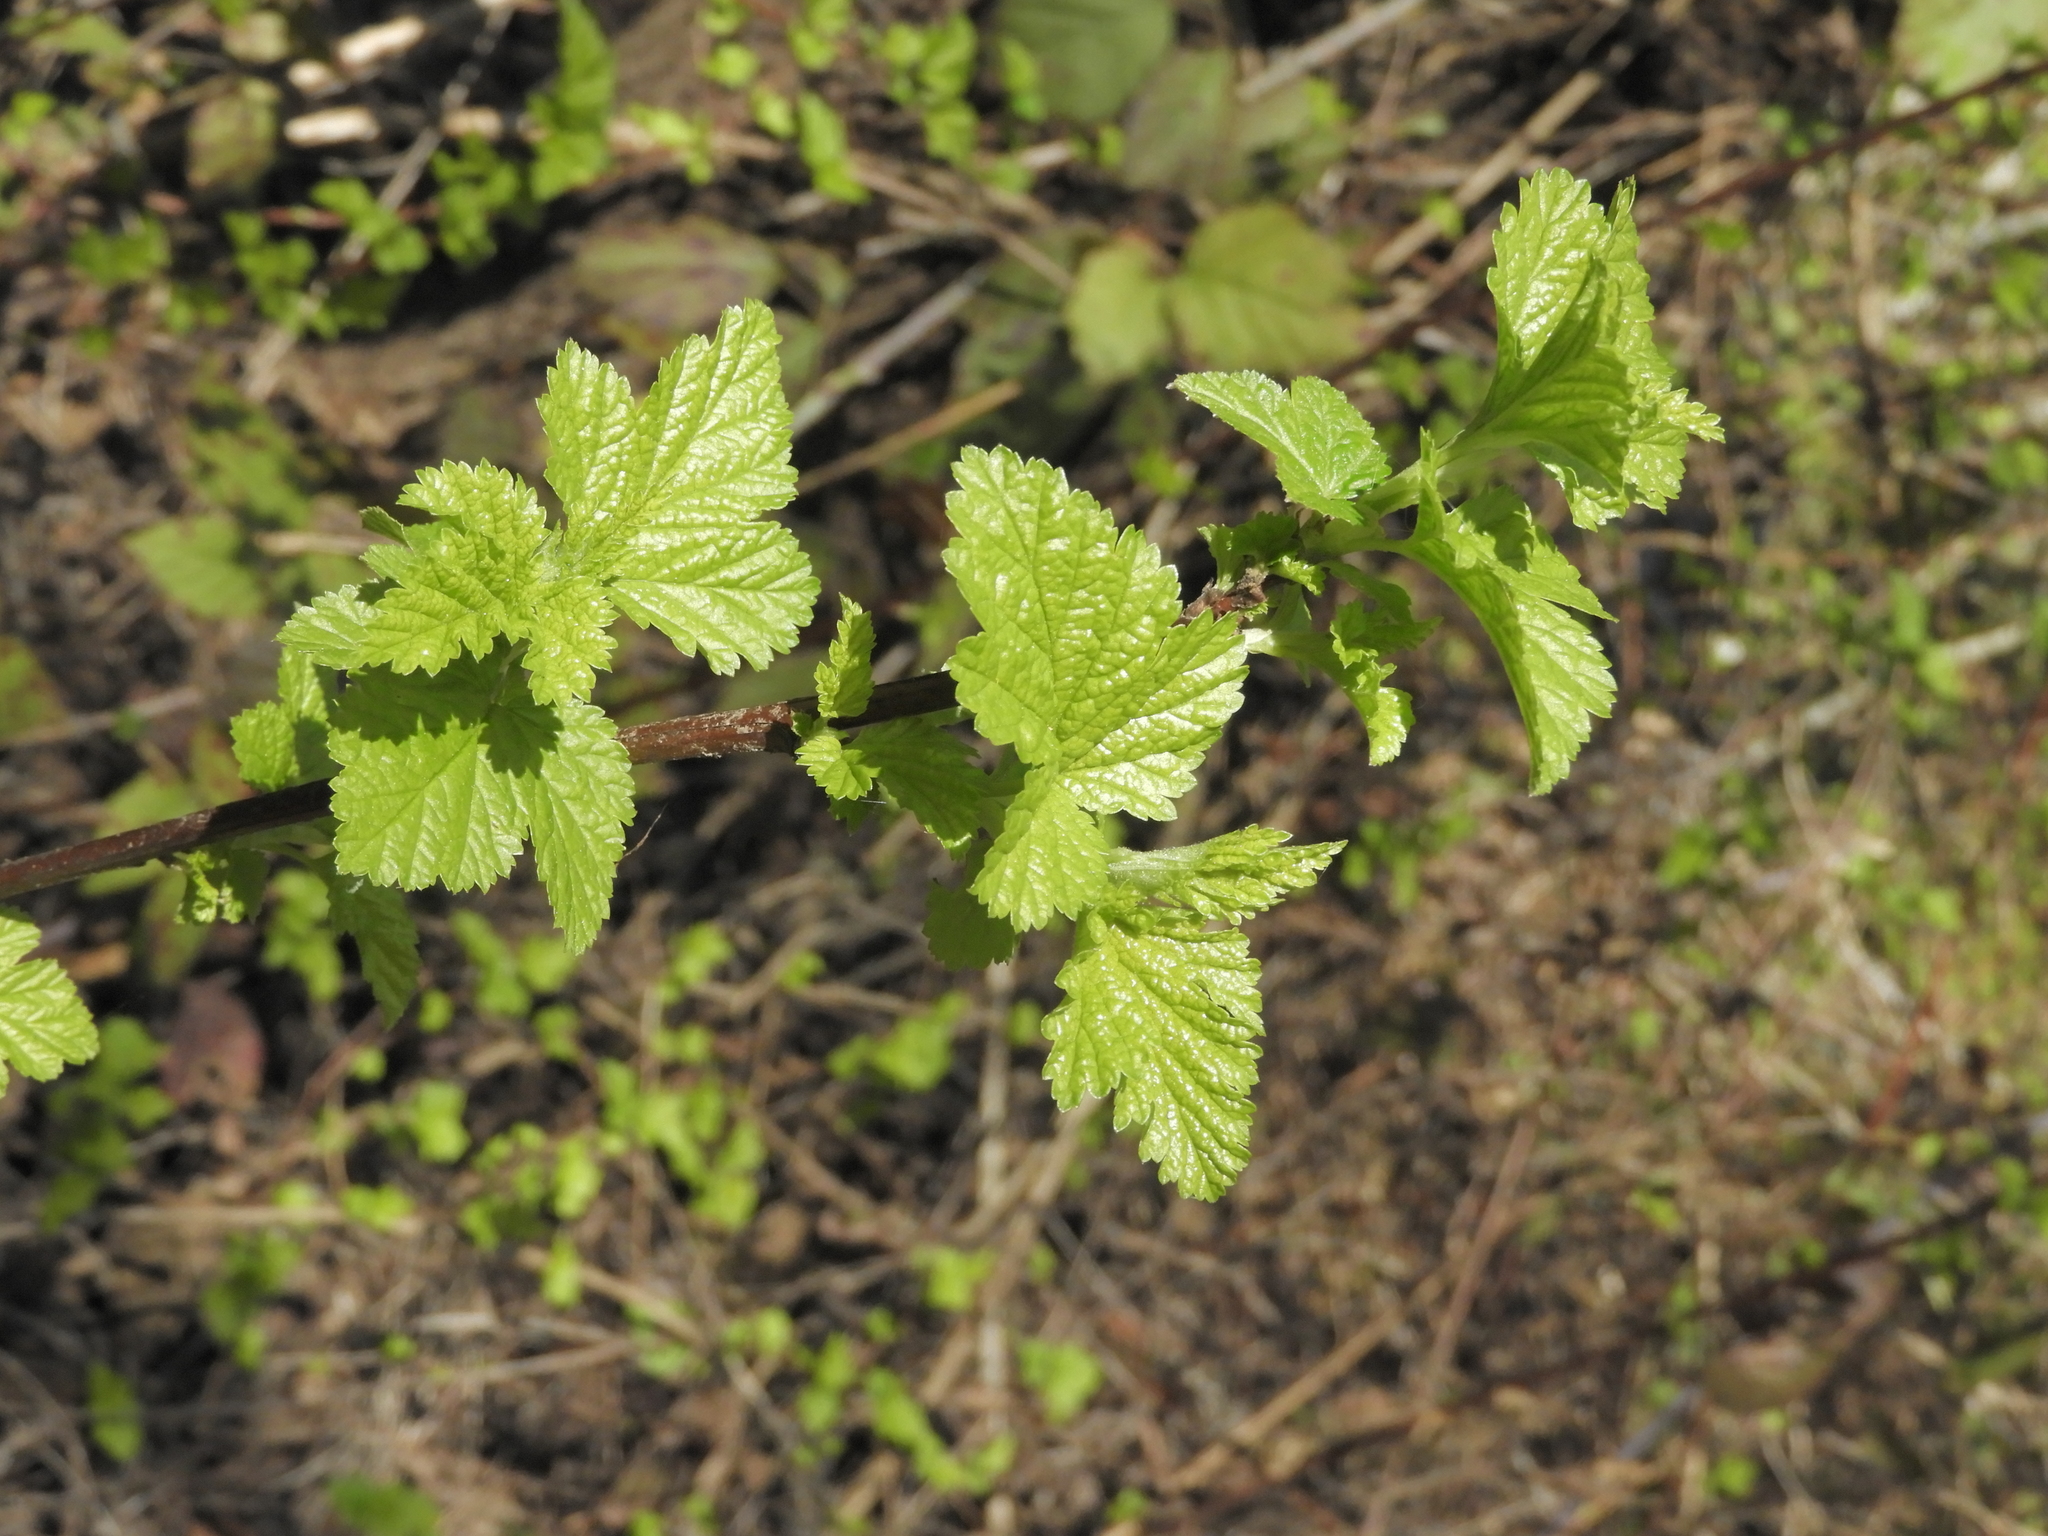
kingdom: Plantae
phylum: Tracheophyta
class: Magnoliopsida
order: Rosales
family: Rosaceae
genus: Physocarpus
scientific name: Physocarpus capitatus
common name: Pacific ninebark
